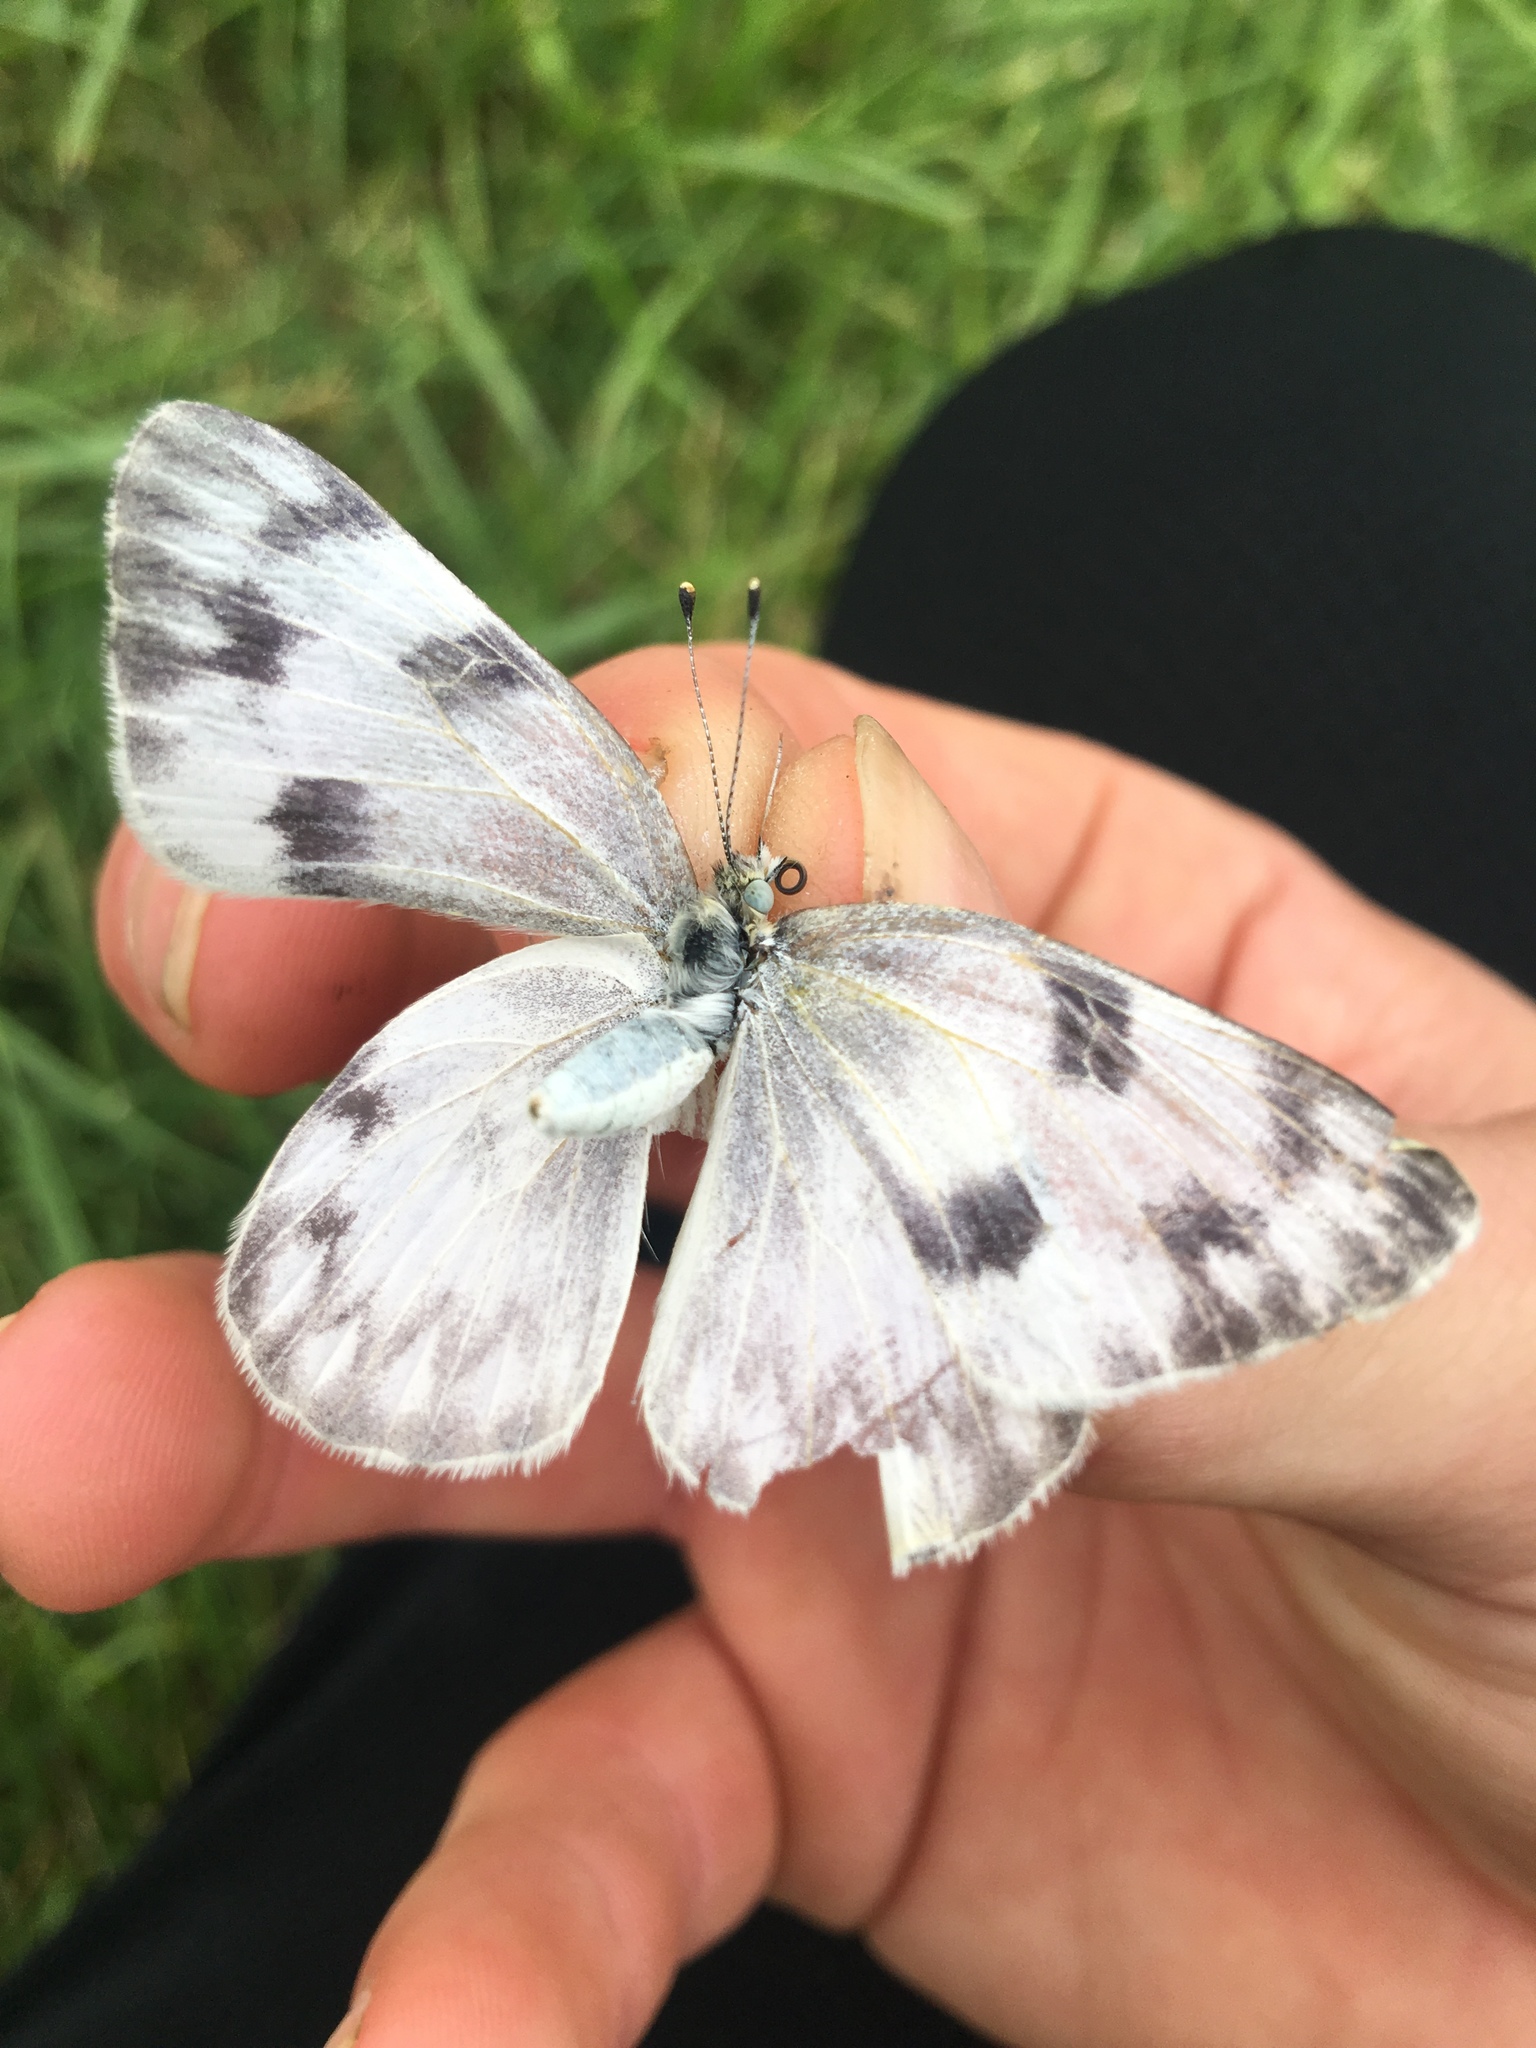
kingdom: Animalia
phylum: Arthropoda
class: Insecta
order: Lepidoptera
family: Pieridae
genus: Pontia
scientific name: Pontia protodice
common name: Checkered white
